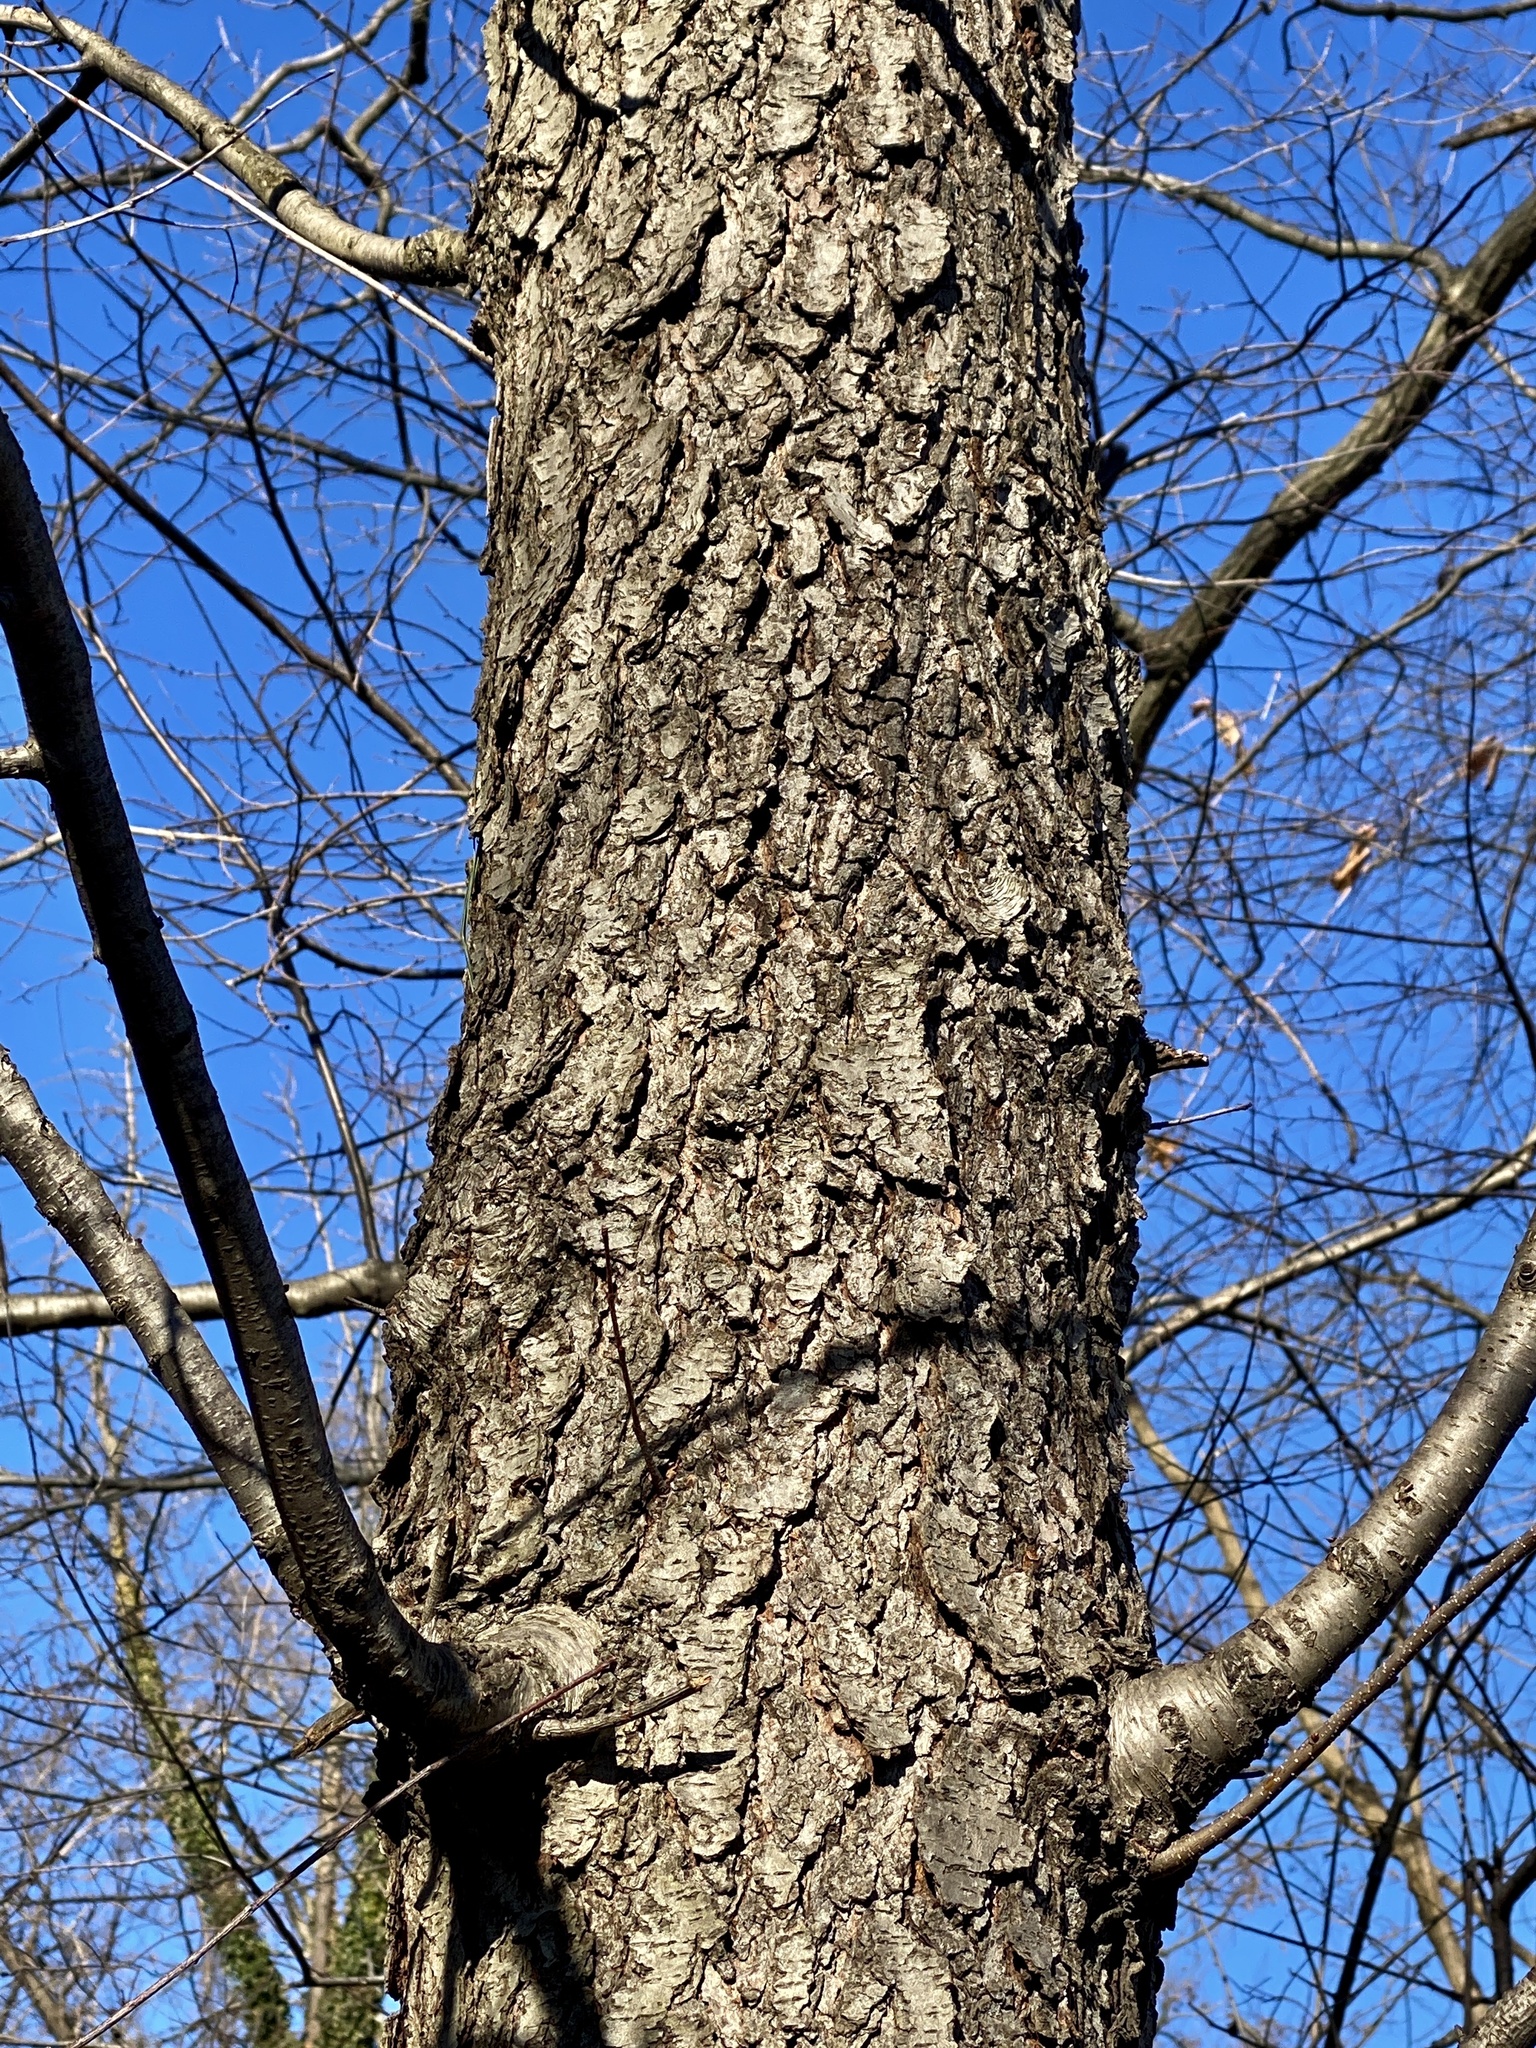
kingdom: Plantae
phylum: Tracheophyta
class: Magnoliopsida
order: Rosales
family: Rosaceae
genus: Prunus
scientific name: Prunus serotina
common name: Black cherry
